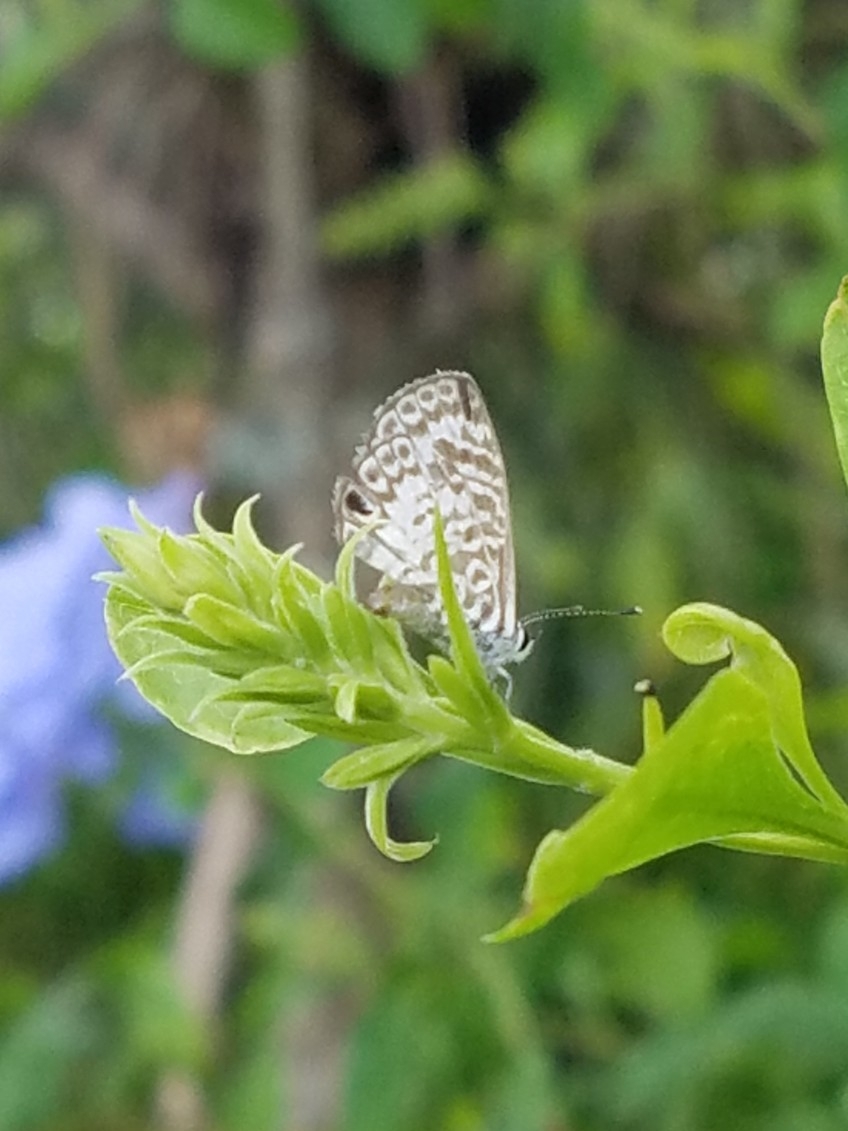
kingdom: Animalia
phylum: Arthropoda
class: Insecta
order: Lepidoptera
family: Lycaenidae
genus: Leptotes
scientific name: Leptotes cassius
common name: Cassius blue
